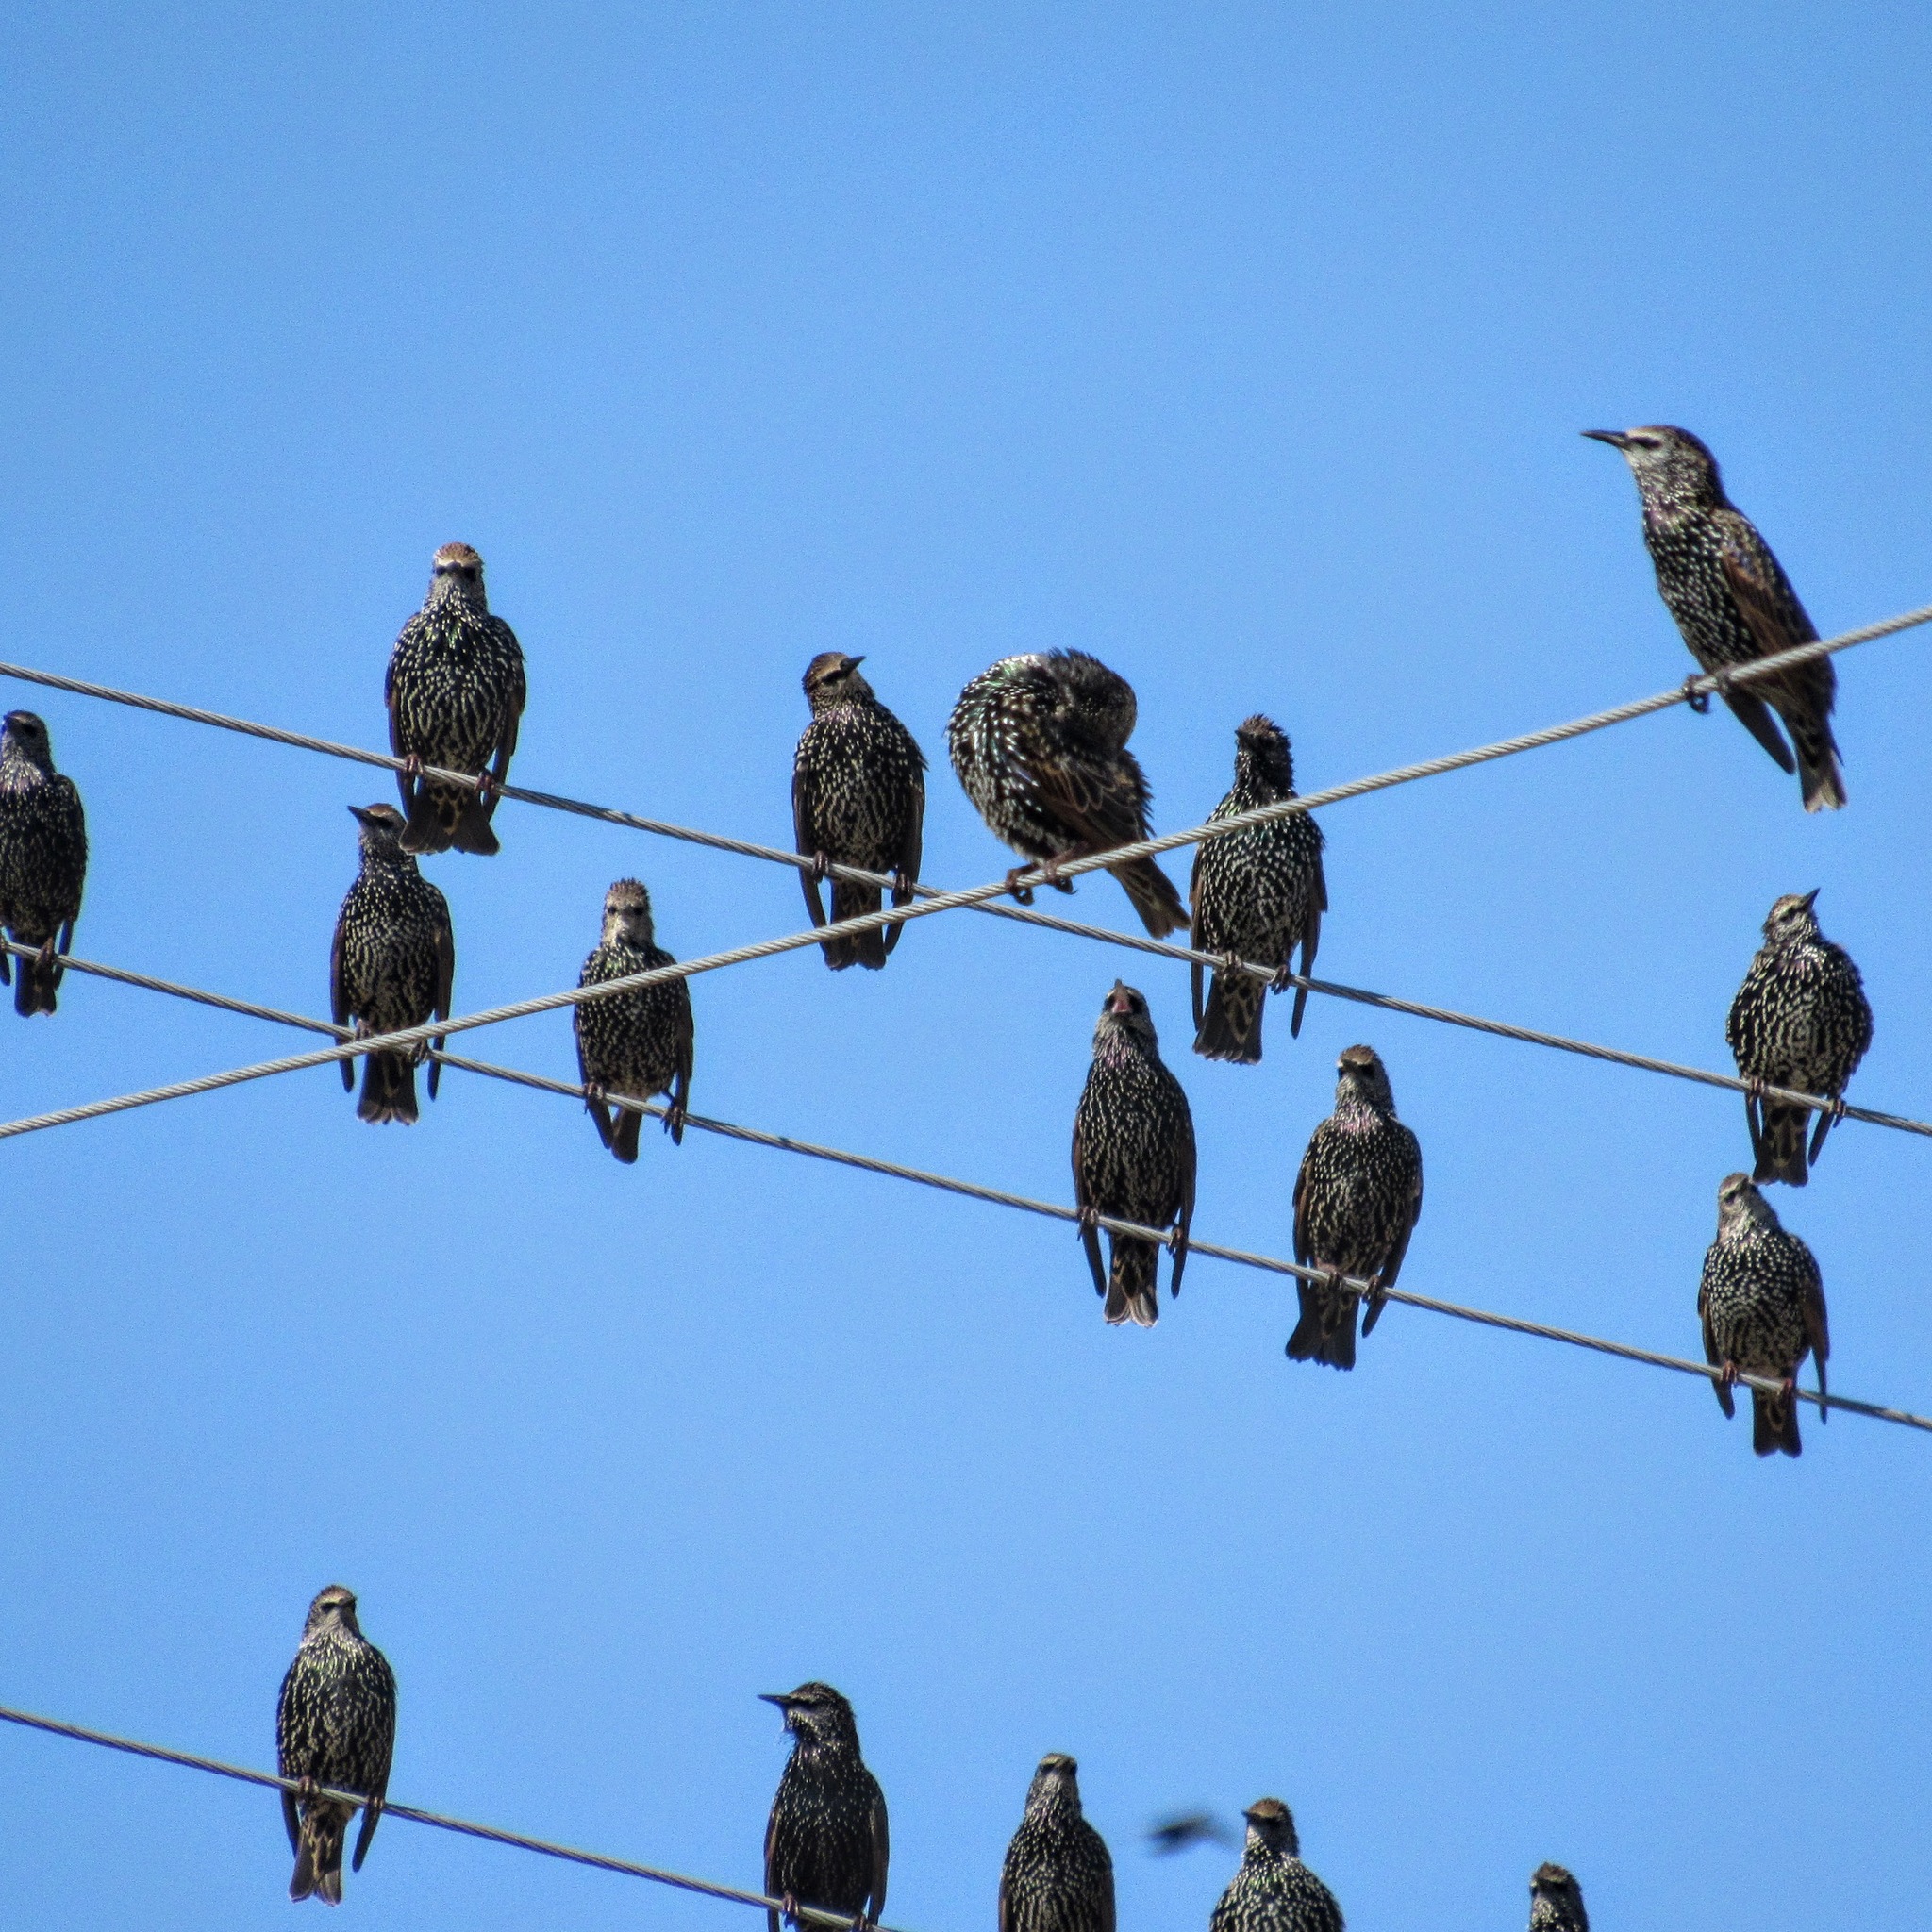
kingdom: Animalia
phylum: Chordata
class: Aves
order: Passeriformes
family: Sturnidae
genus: Sturnus
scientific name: Sturnus vulgaris
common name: Common starling
